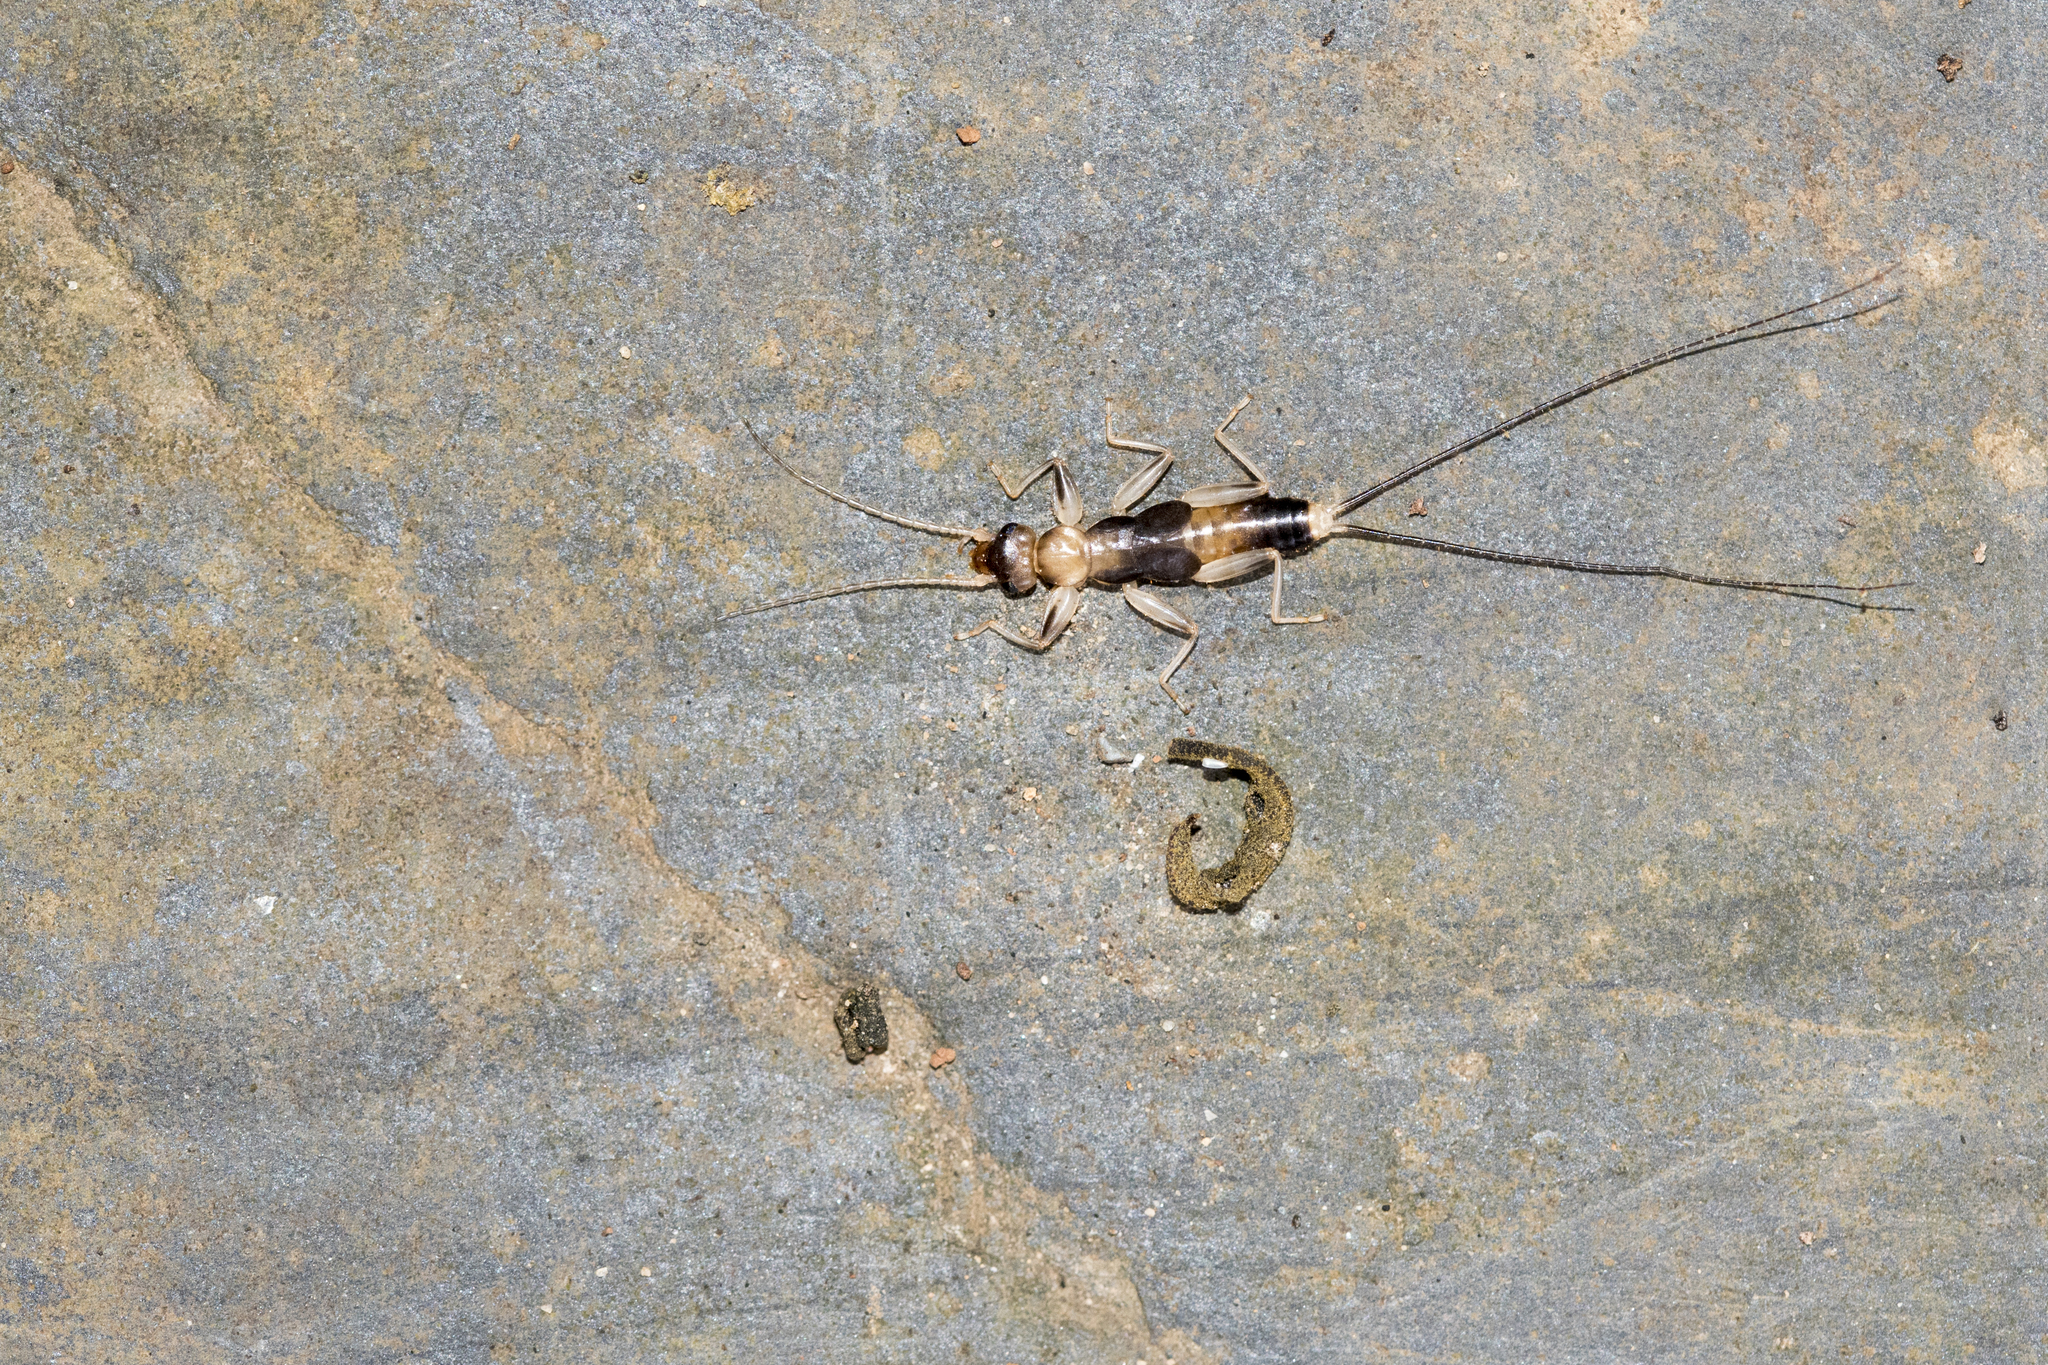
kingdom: Animalia
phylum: Arthropoda
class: Insecta
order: Dermaptera
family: Diplatyidae
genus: Diplatys
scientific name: Diplatys flavicollis
